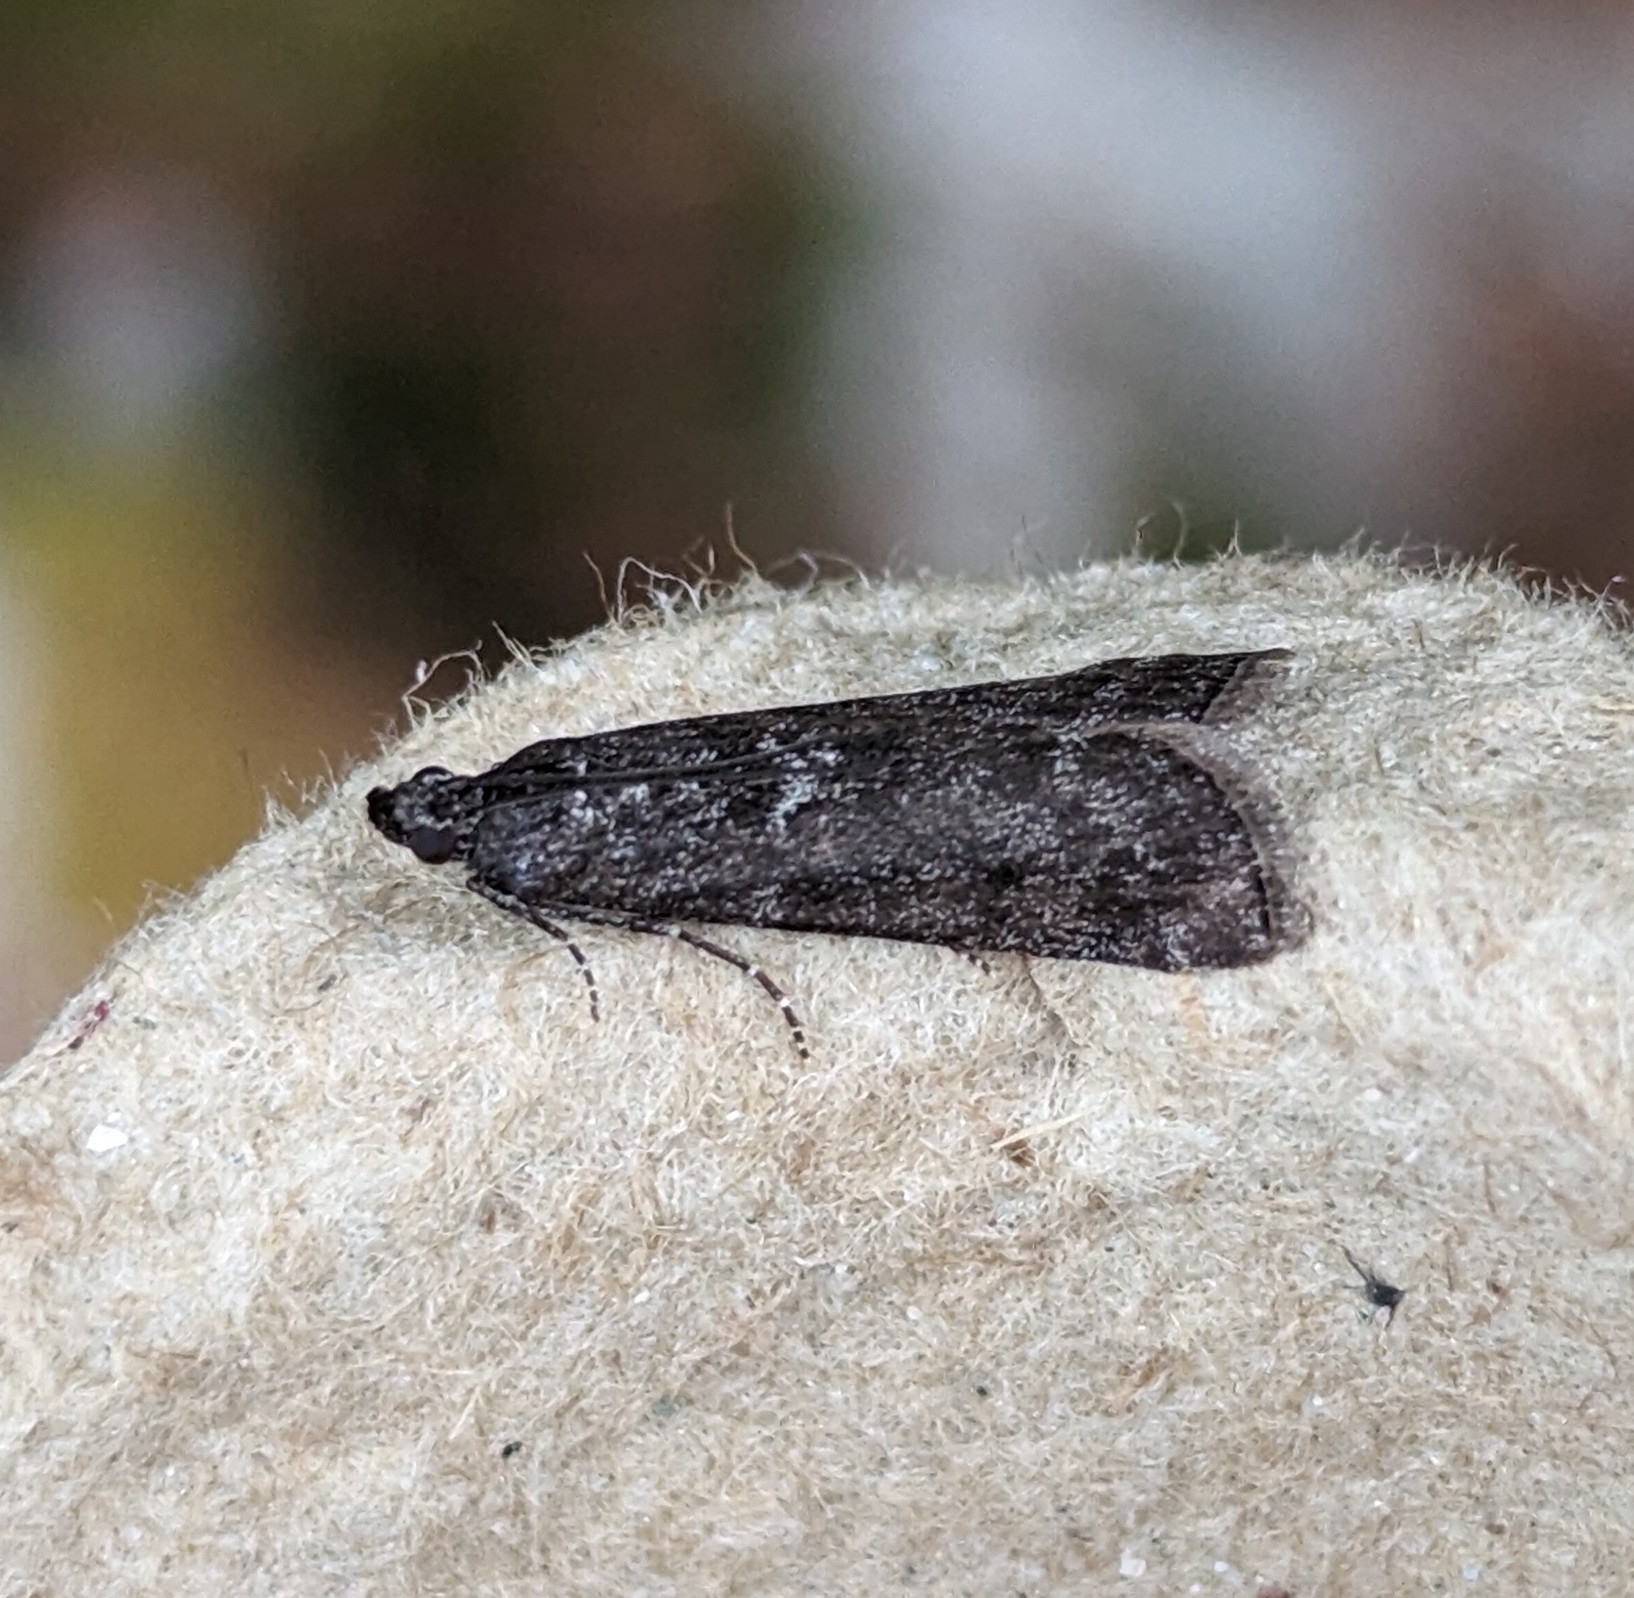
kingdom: Animalia
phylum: Arthropoda
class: Insecta
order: Lepidoptera
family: Pyralidae
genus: Pyla
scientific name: Pyla fusca
